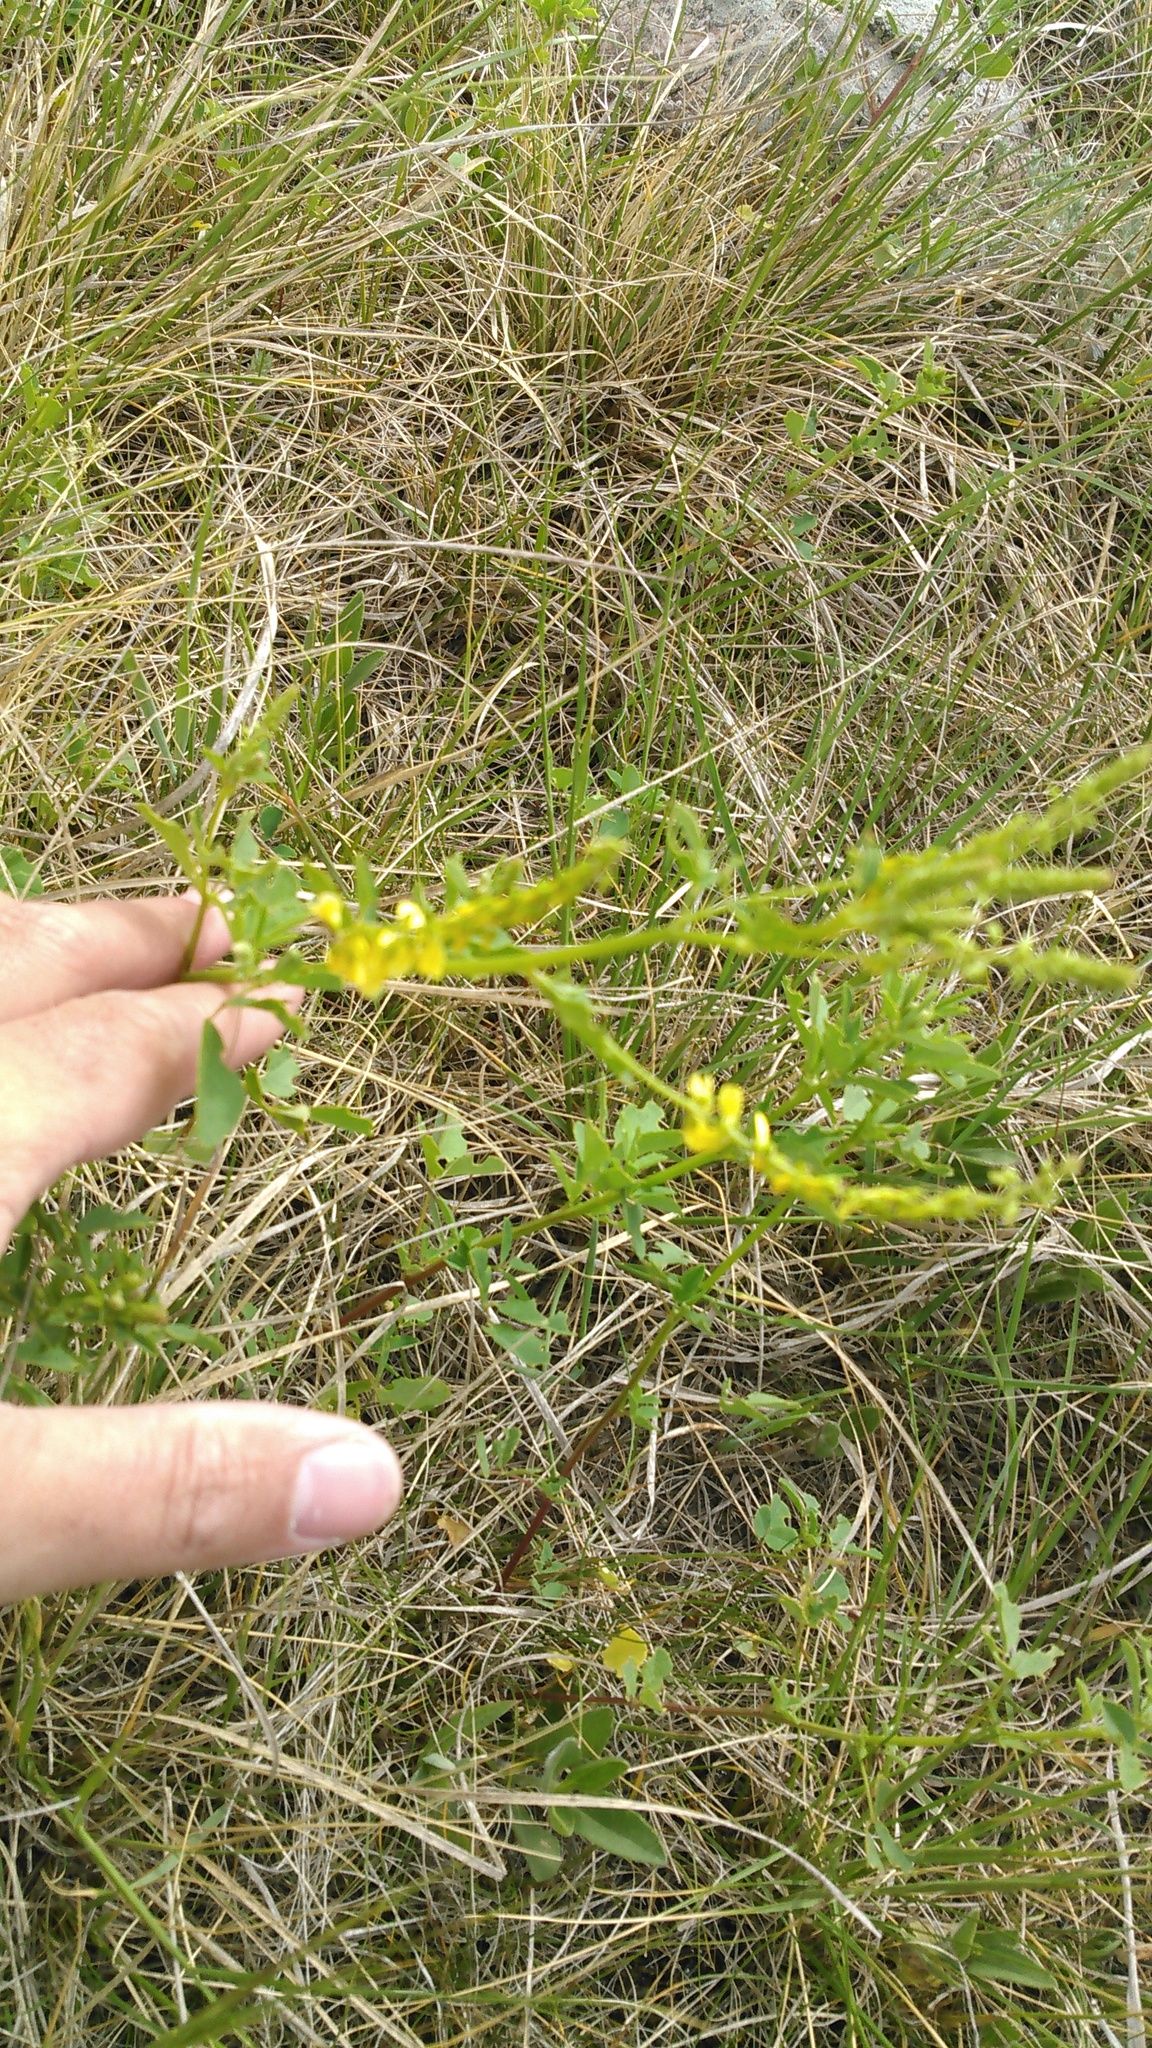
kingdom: Plantae
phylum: Tracheophyta
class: Magnoliopsida
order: Fabales
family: Fabaceae
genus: Melilotus
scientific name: Melilotus officinalis
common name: Sweetclover
